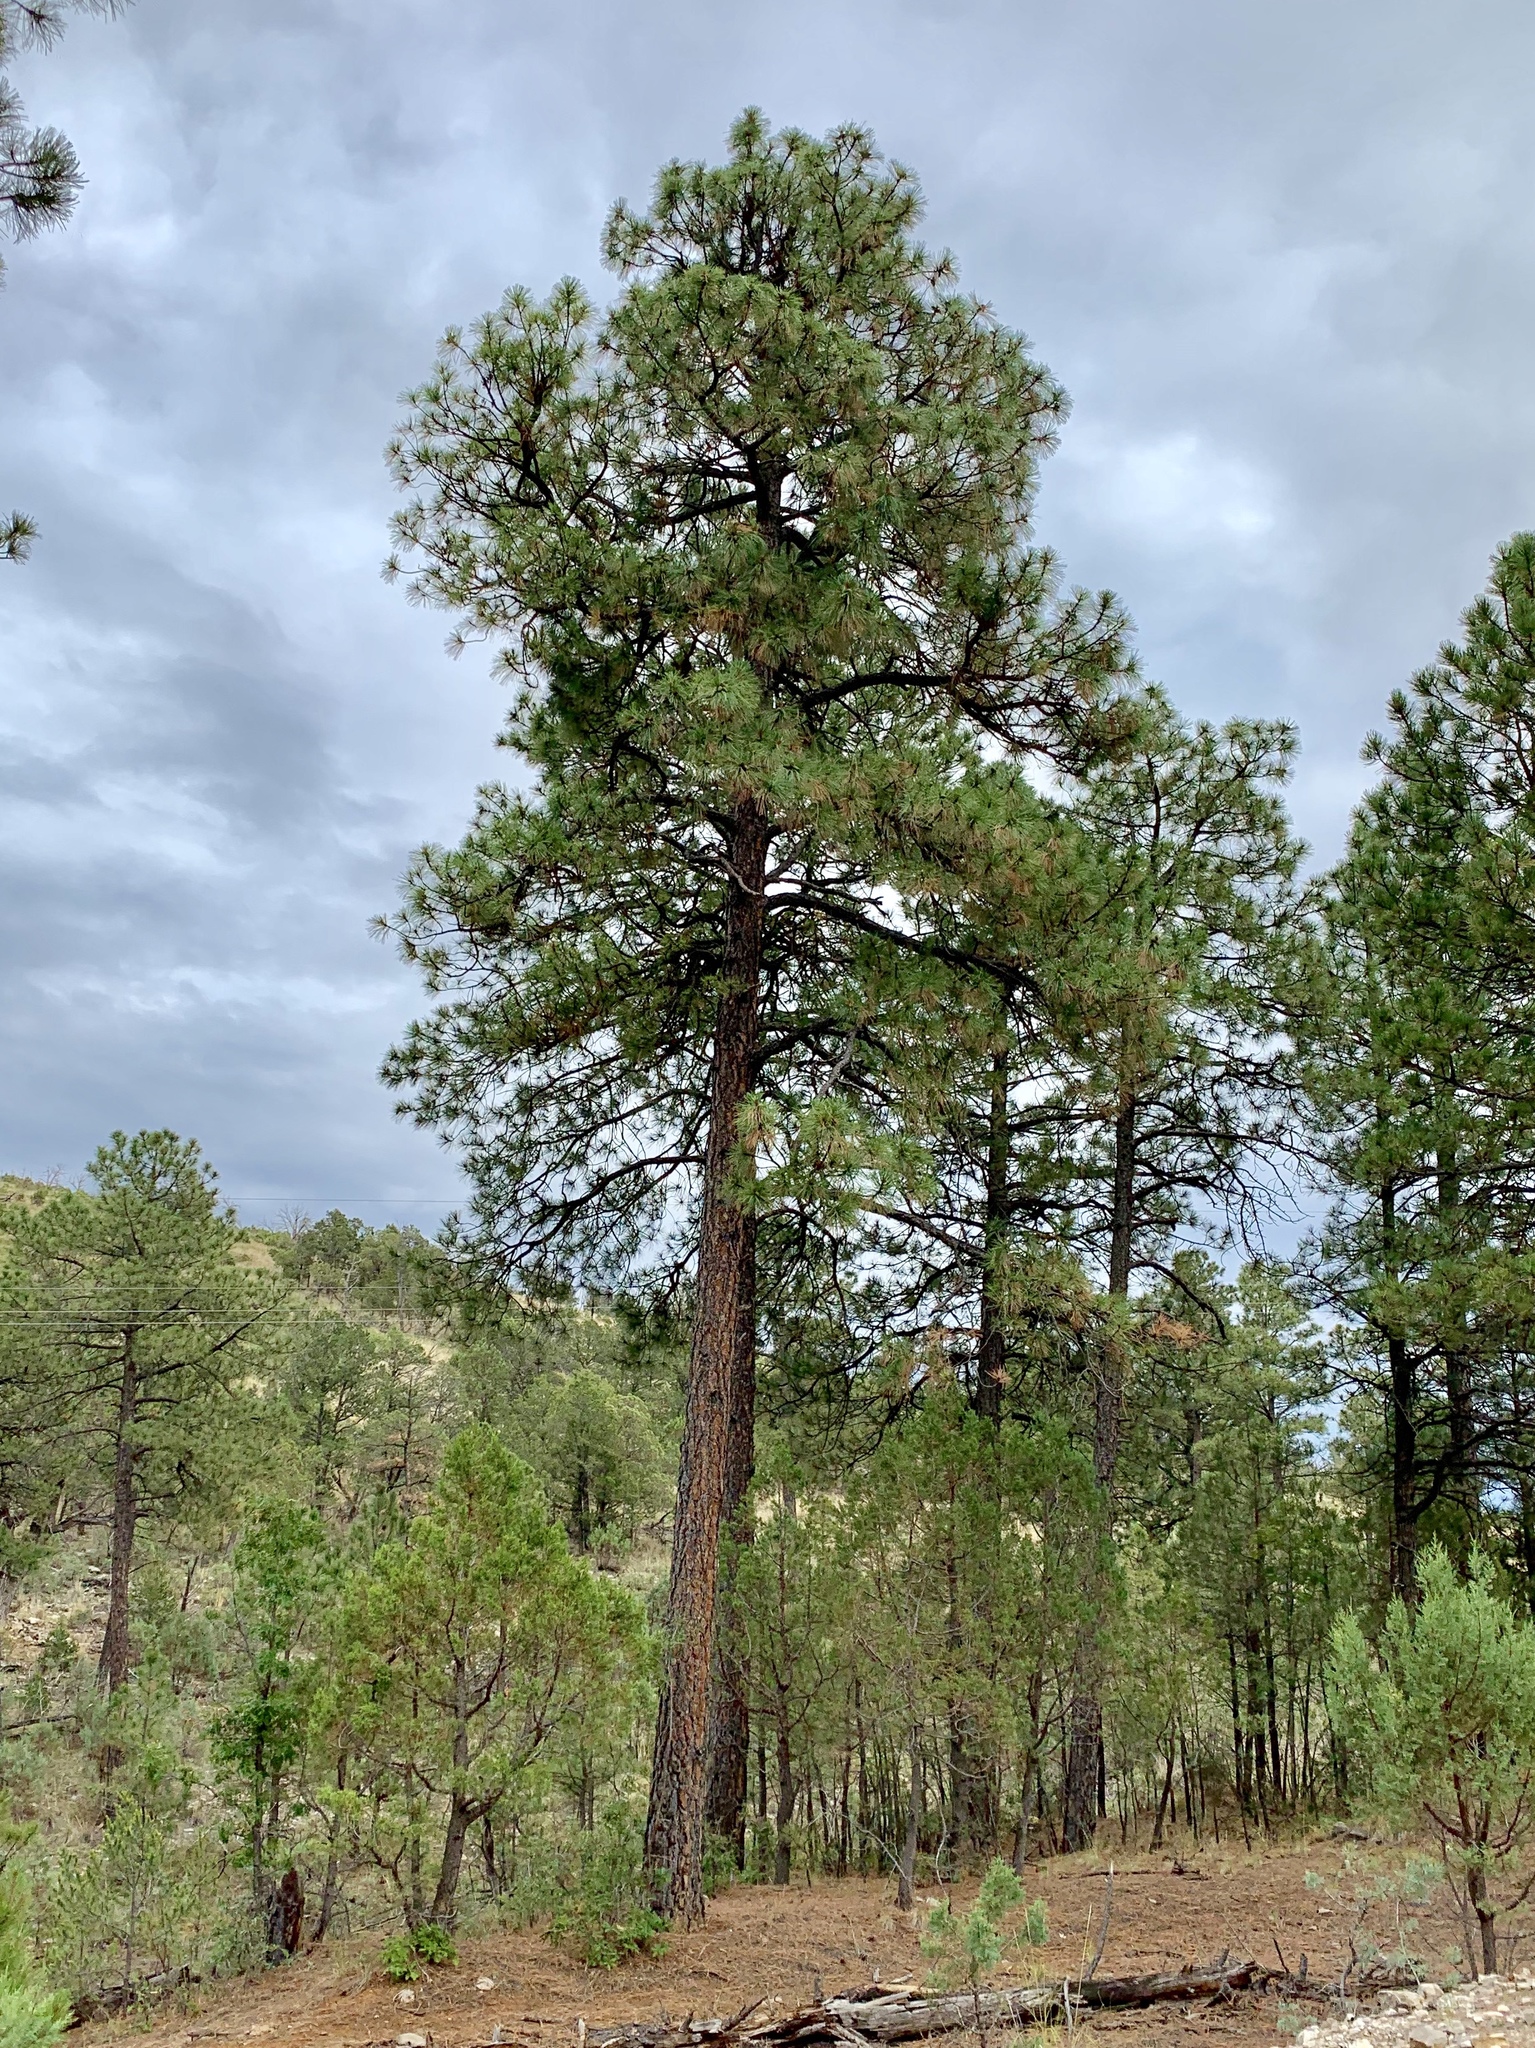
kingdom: Plantae
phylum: Tracheophyta
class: Pinopsida
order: Pinales
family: Pinaceae
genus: Pinus
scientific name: Pinus ponderosa
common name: Western yellow-pine
